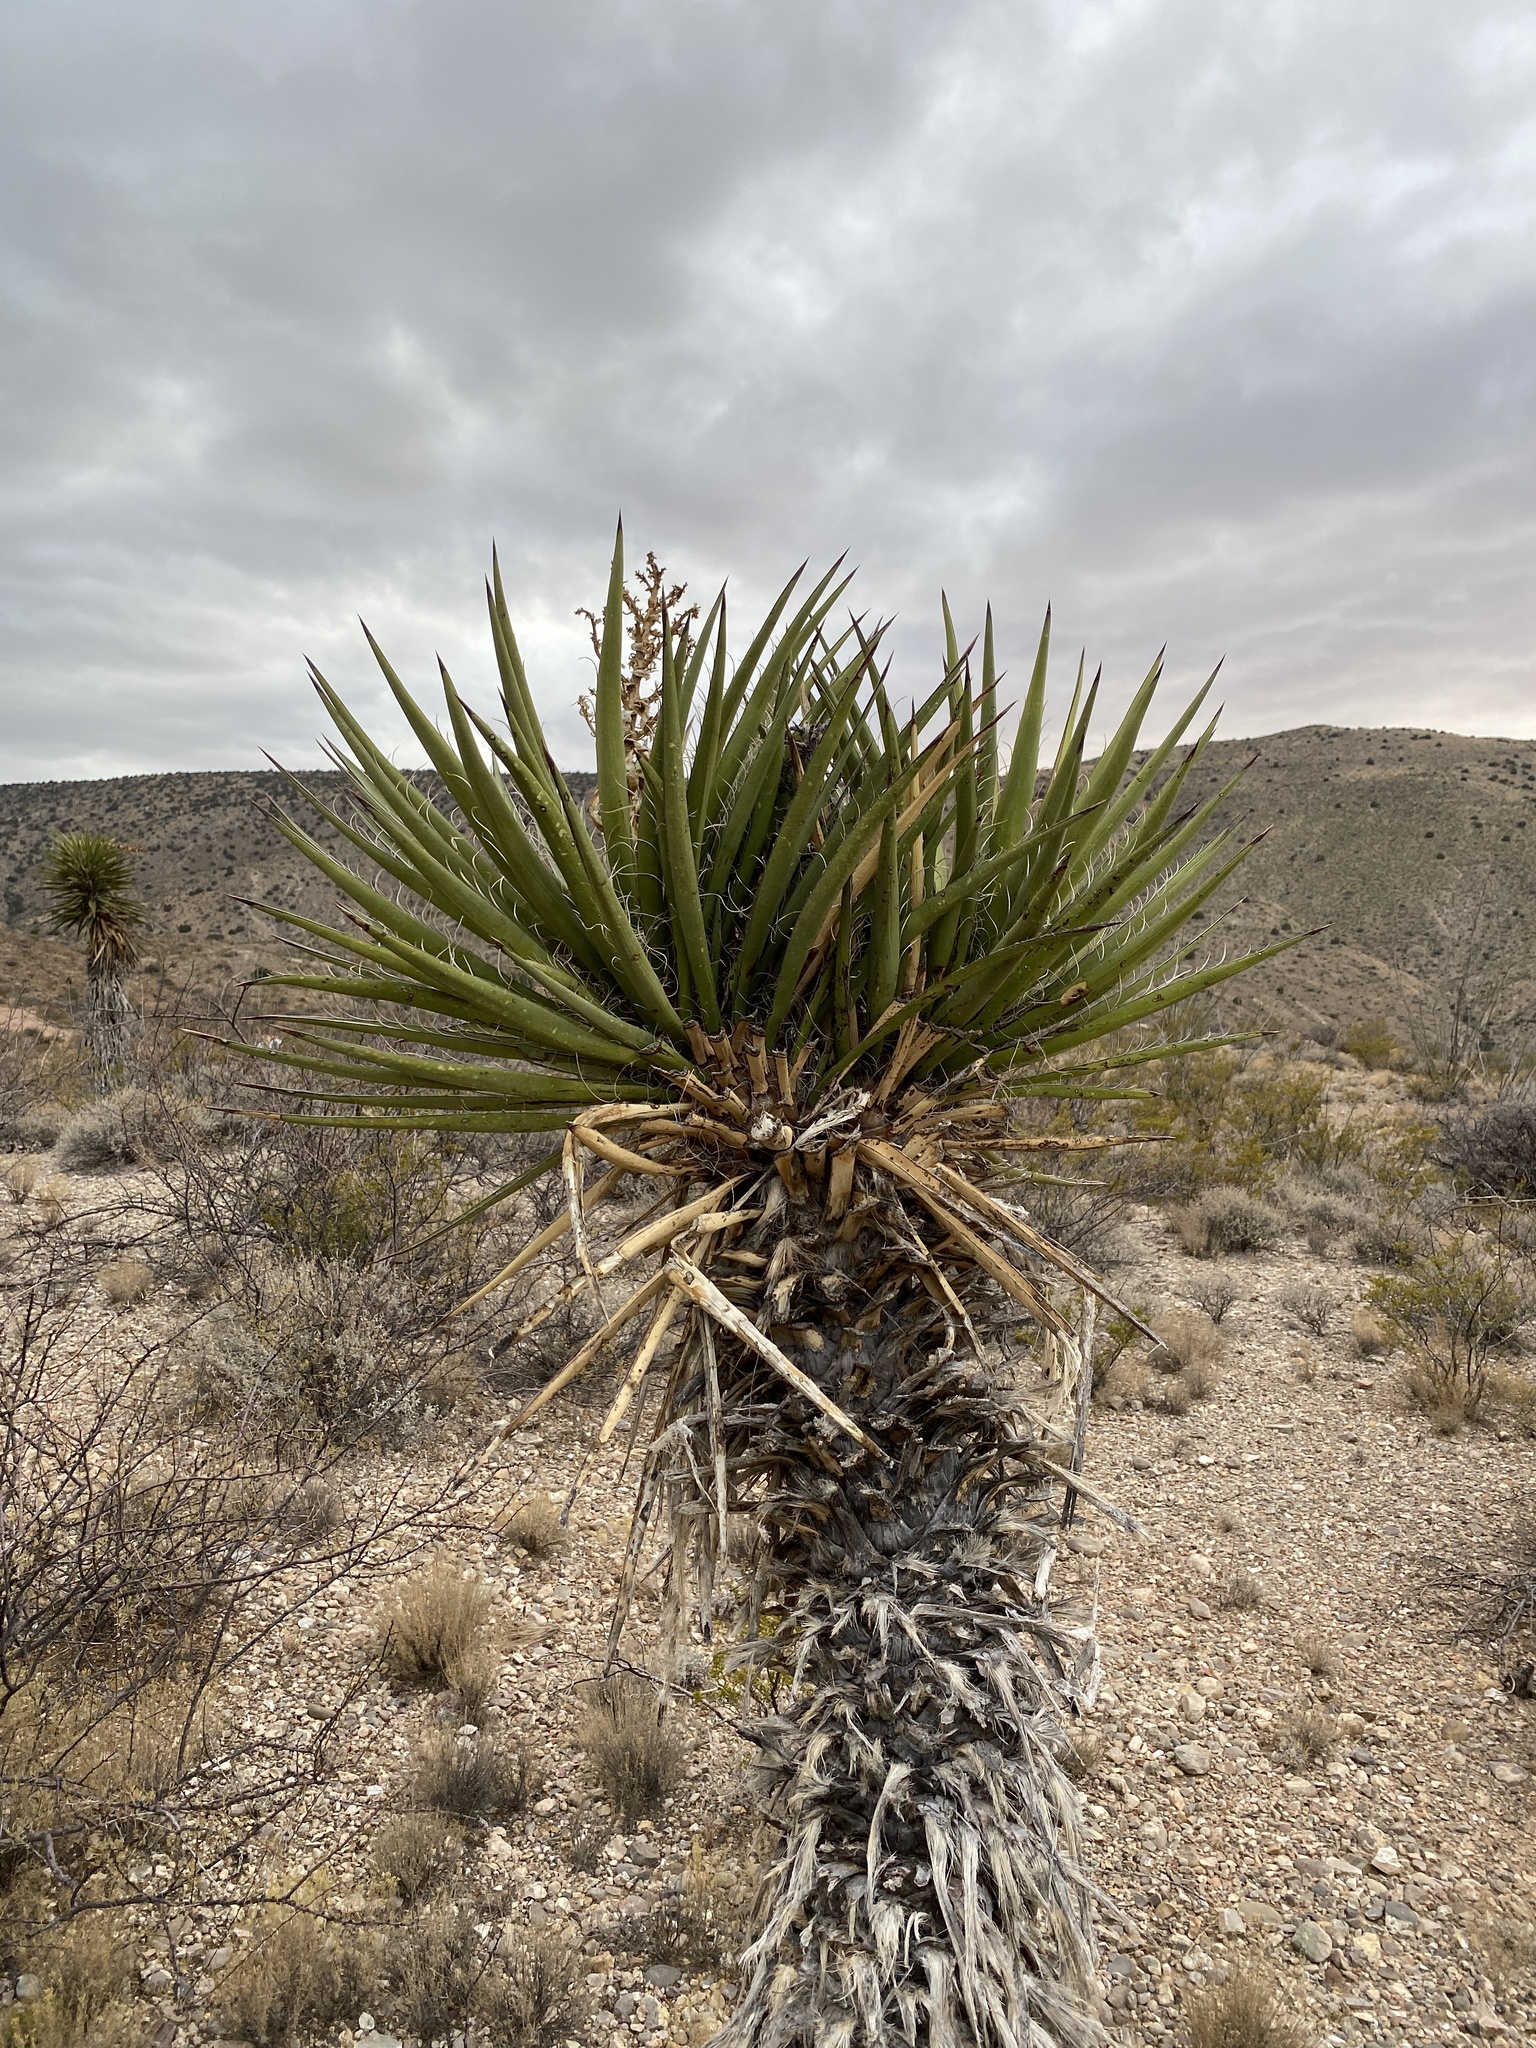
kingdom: Plantae
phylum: Tracheophyta
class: Liliopsida
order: Asparagales
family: Asparagaceae
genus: Yucca
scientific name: Yucca treculiana
